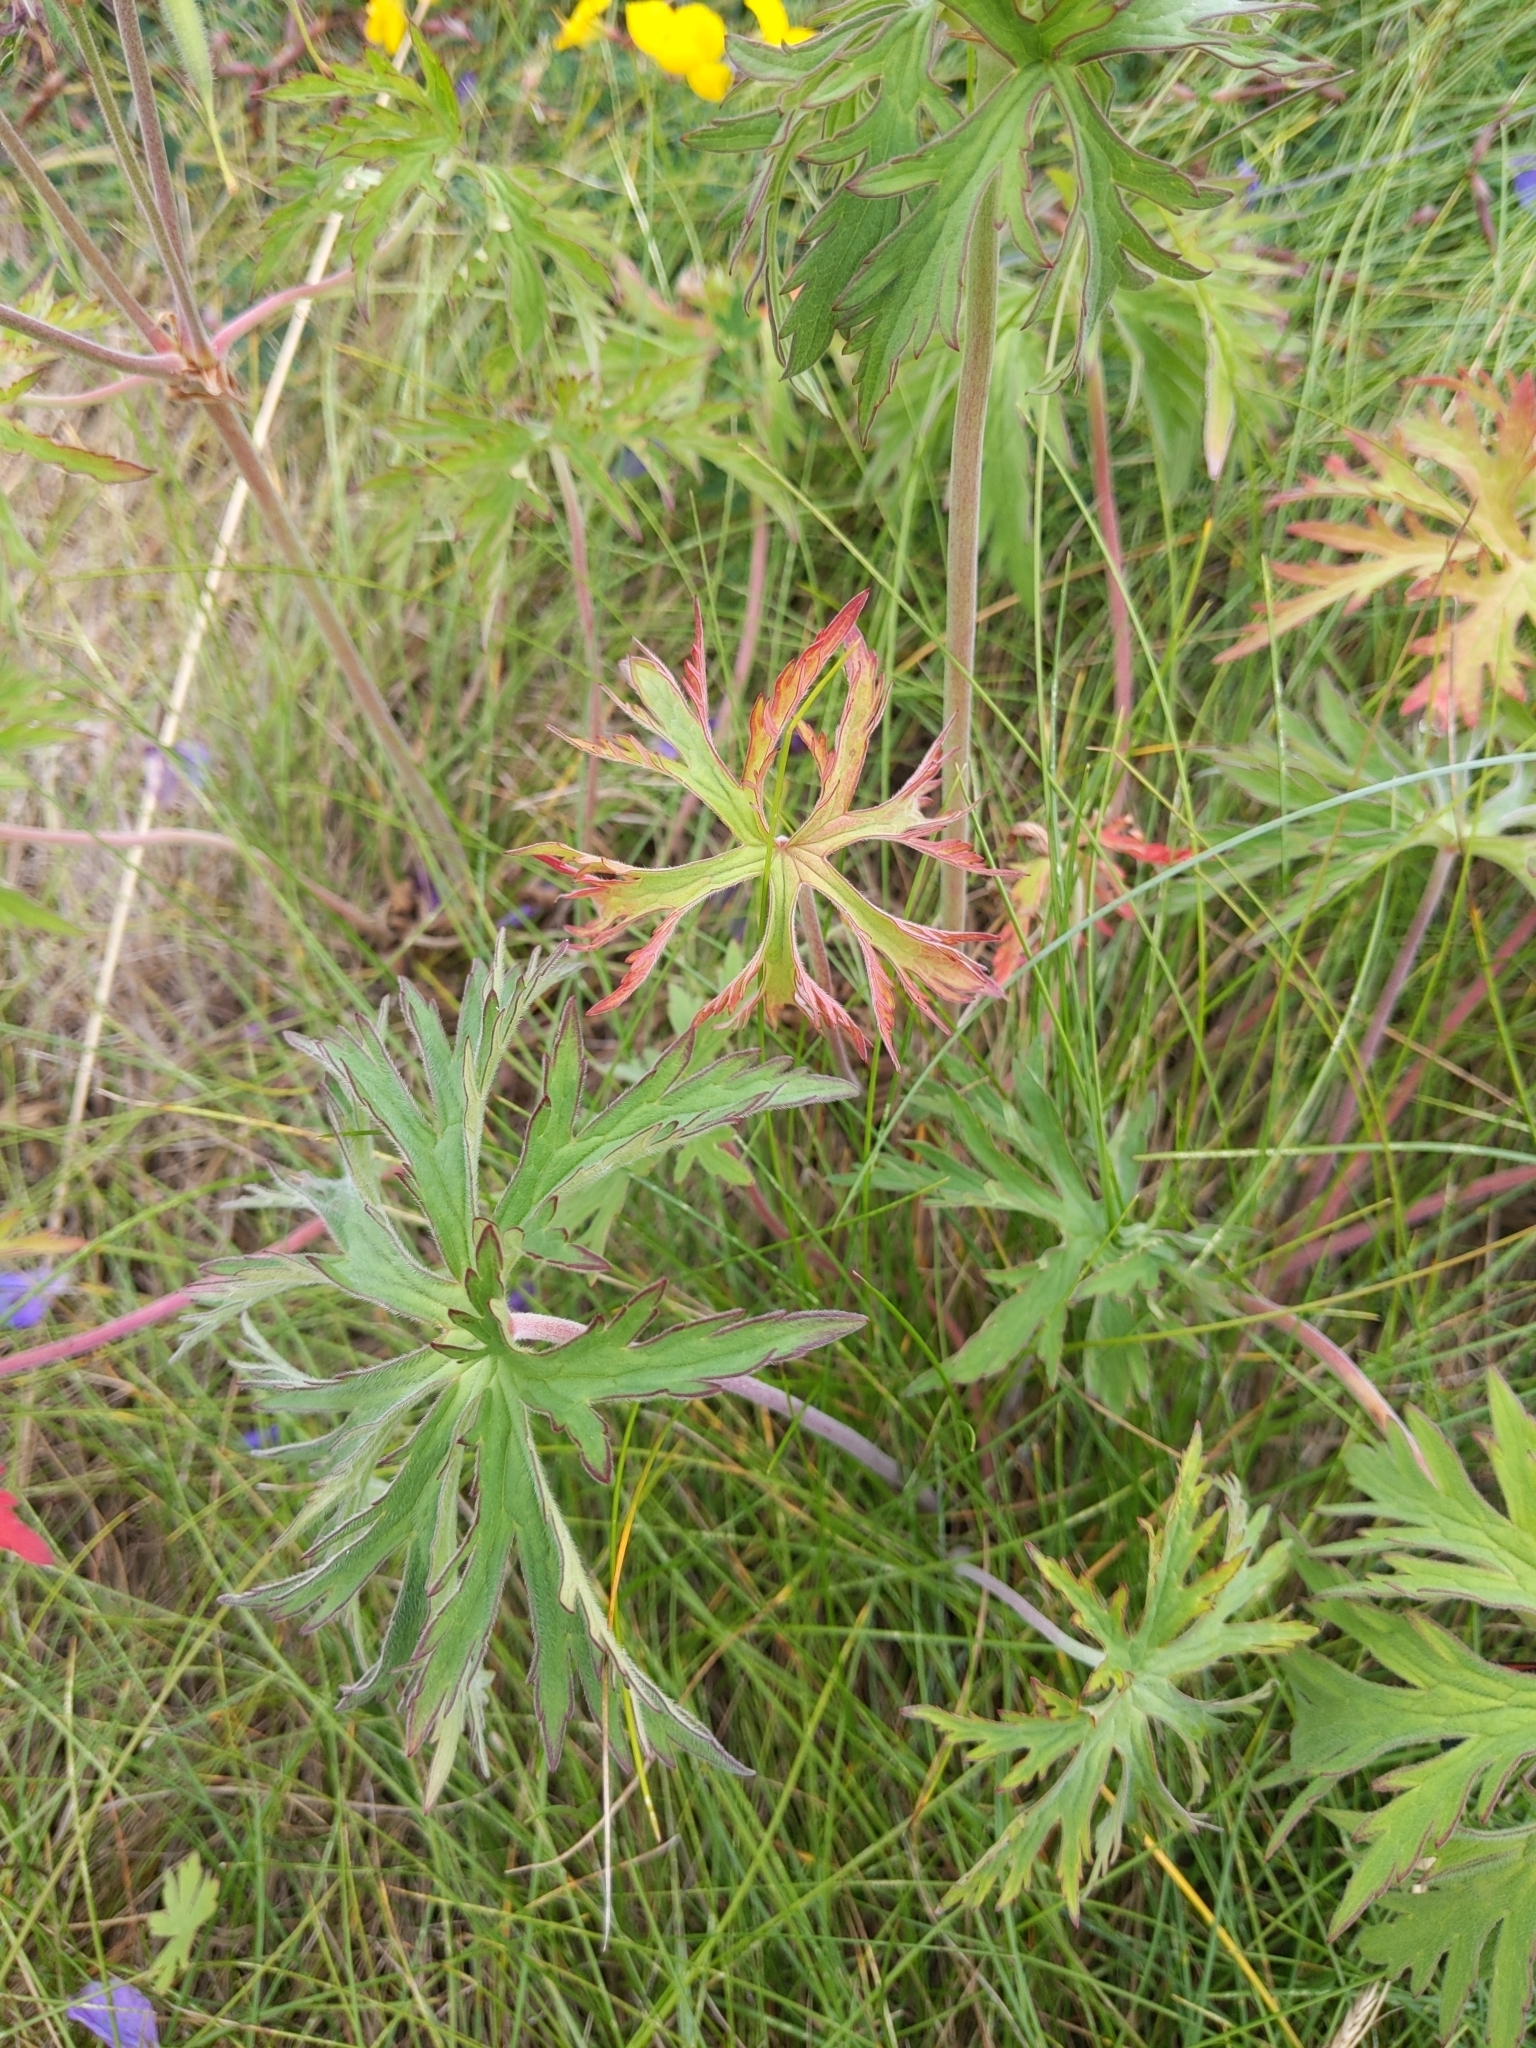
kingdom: Plantae
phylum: Tracheophyta
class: Magnoliopsida
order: Geraniales
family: Geraniaceae
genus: Geranium
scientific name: Geranium pratense
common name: Meadow crane's-bill
